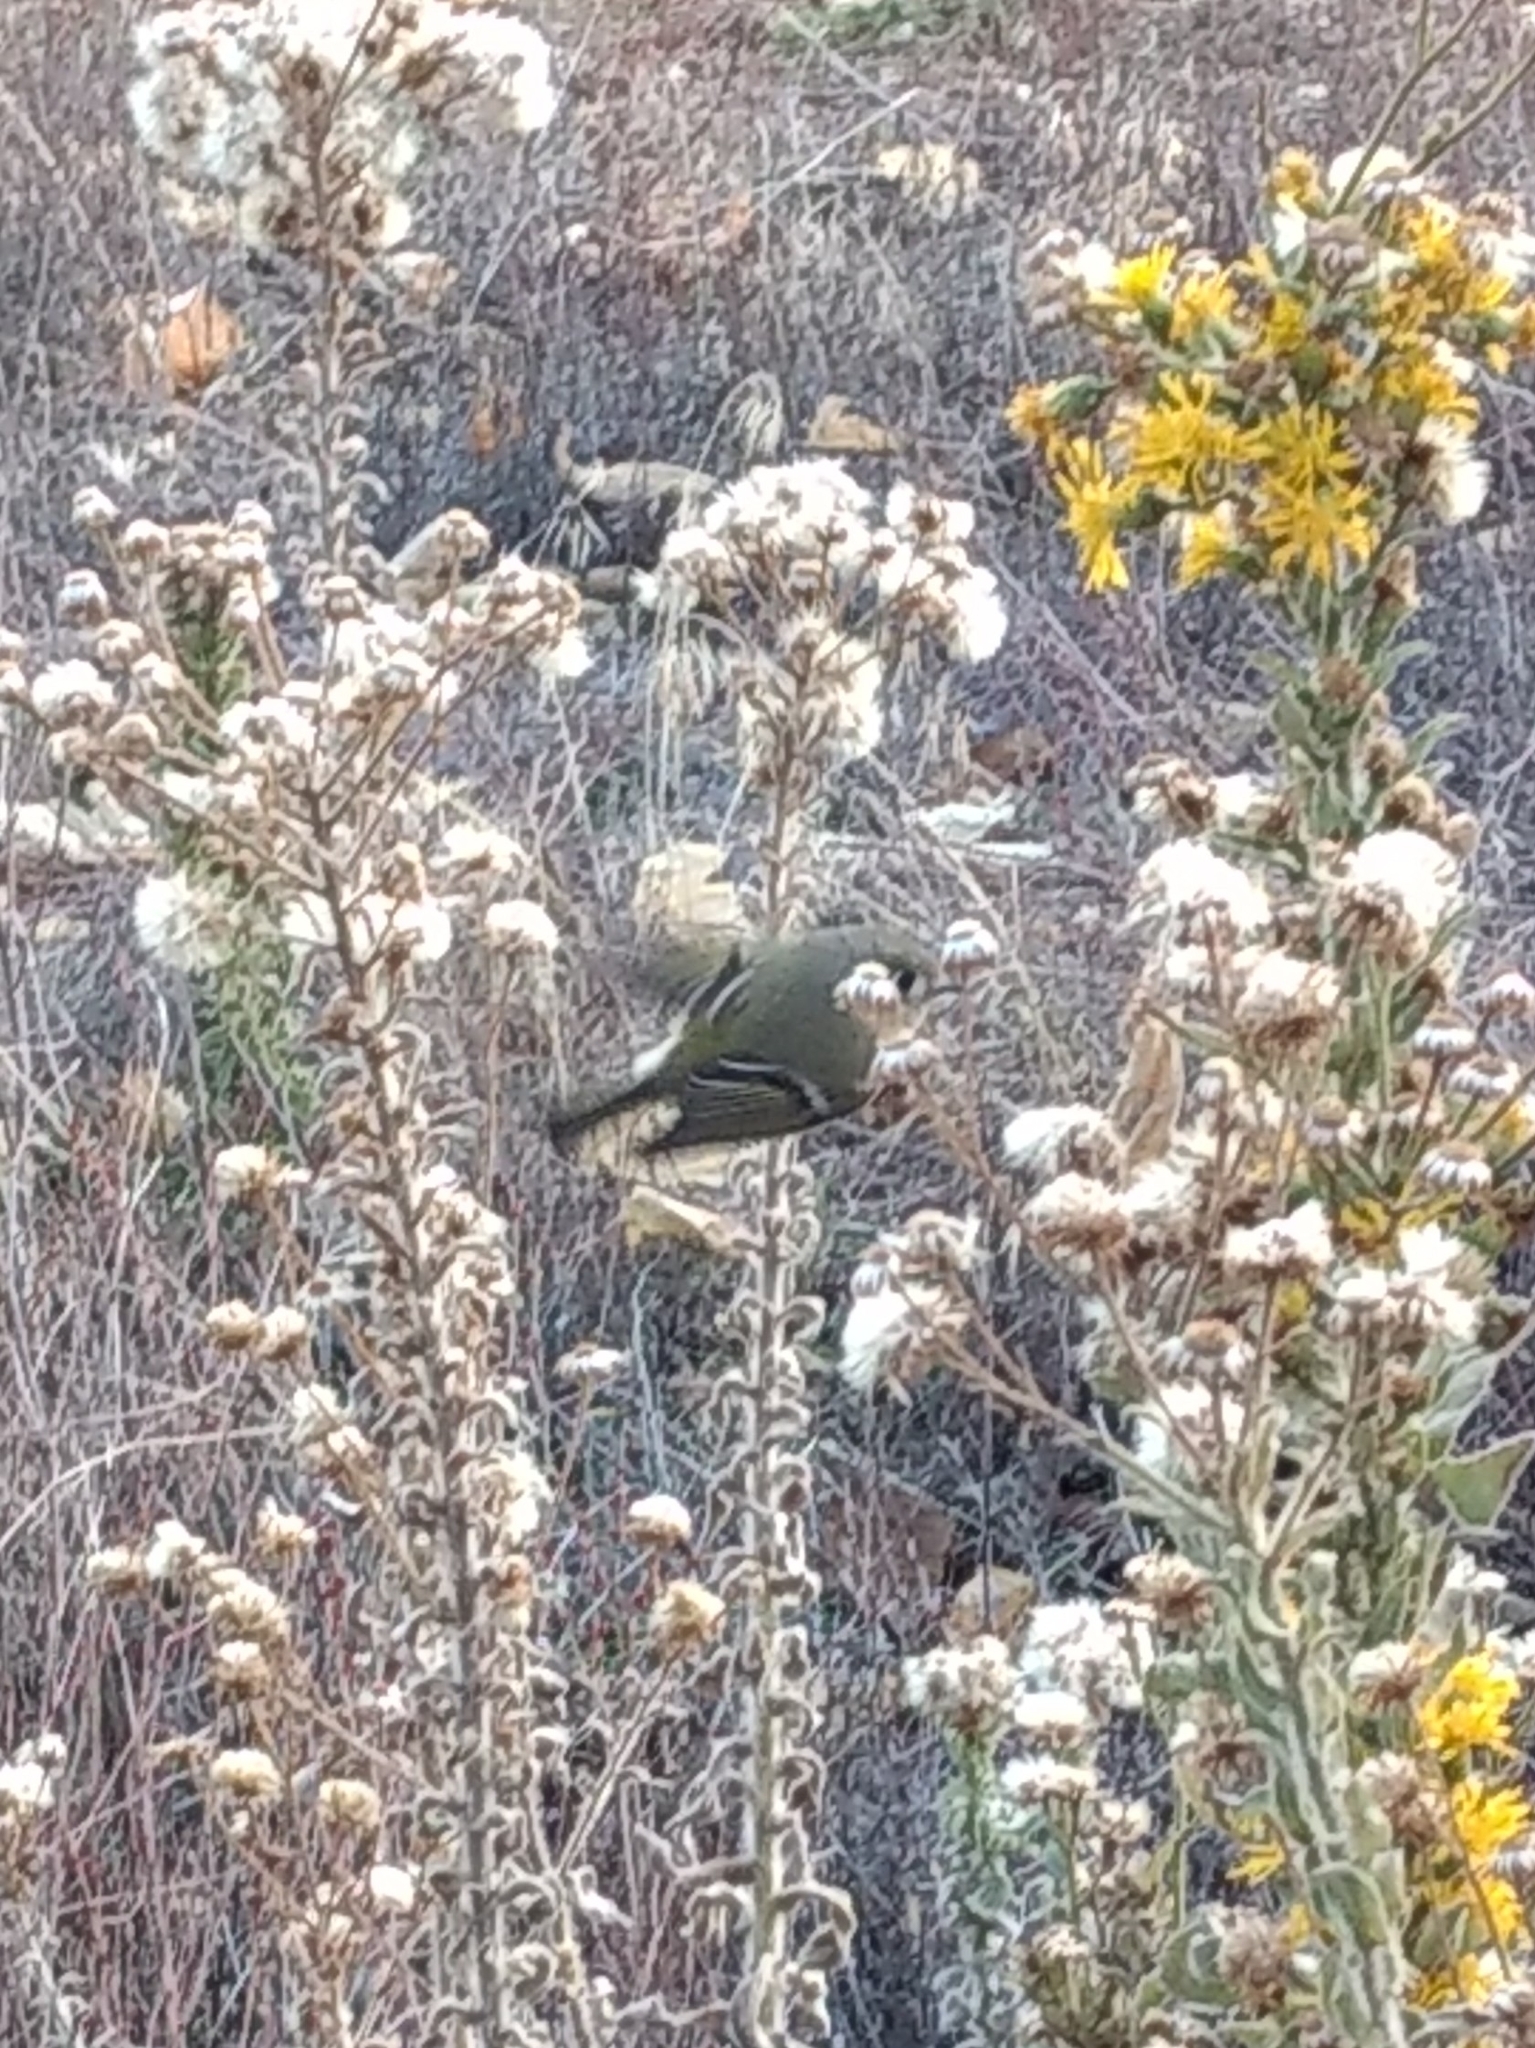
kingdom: Animalia
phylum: Chordata
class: Aves
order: Passeriformes
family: Regulidae
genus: Regulus
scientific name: Regulus calendula
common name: Ruby-crowned kinglet
